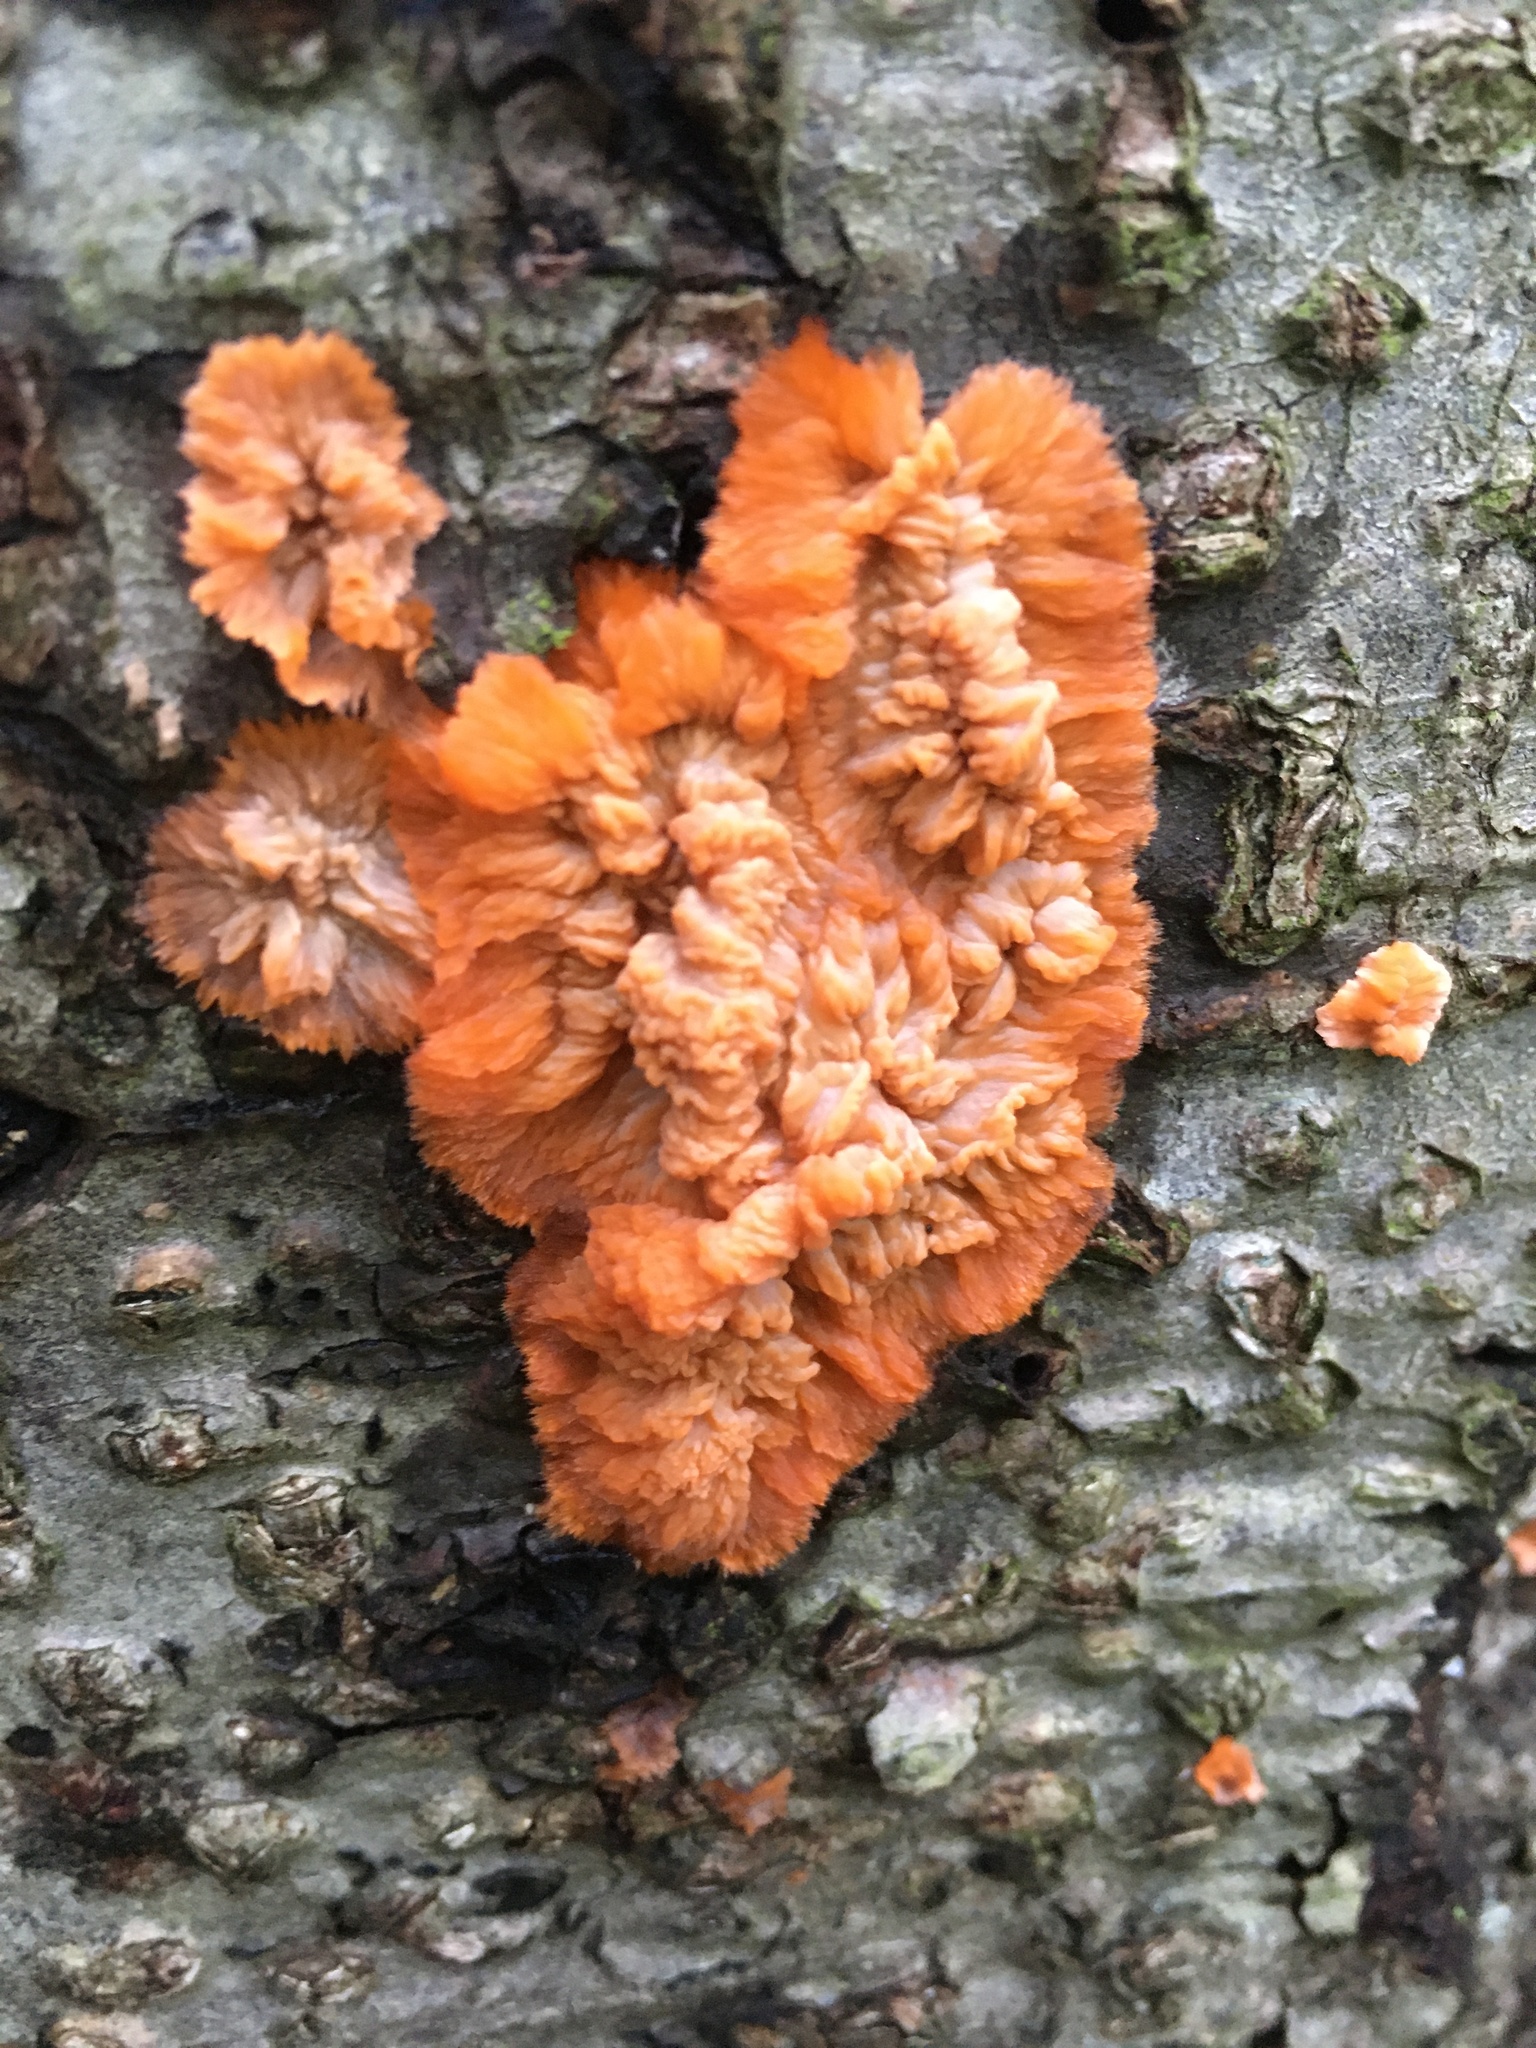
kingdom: Fungi
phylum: Basidiomycota
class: Agaricomycetes
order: Polyporales
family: Meruliaceae
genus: Phlebia
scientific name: Phlebia radiata
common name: Wrinkled crust
